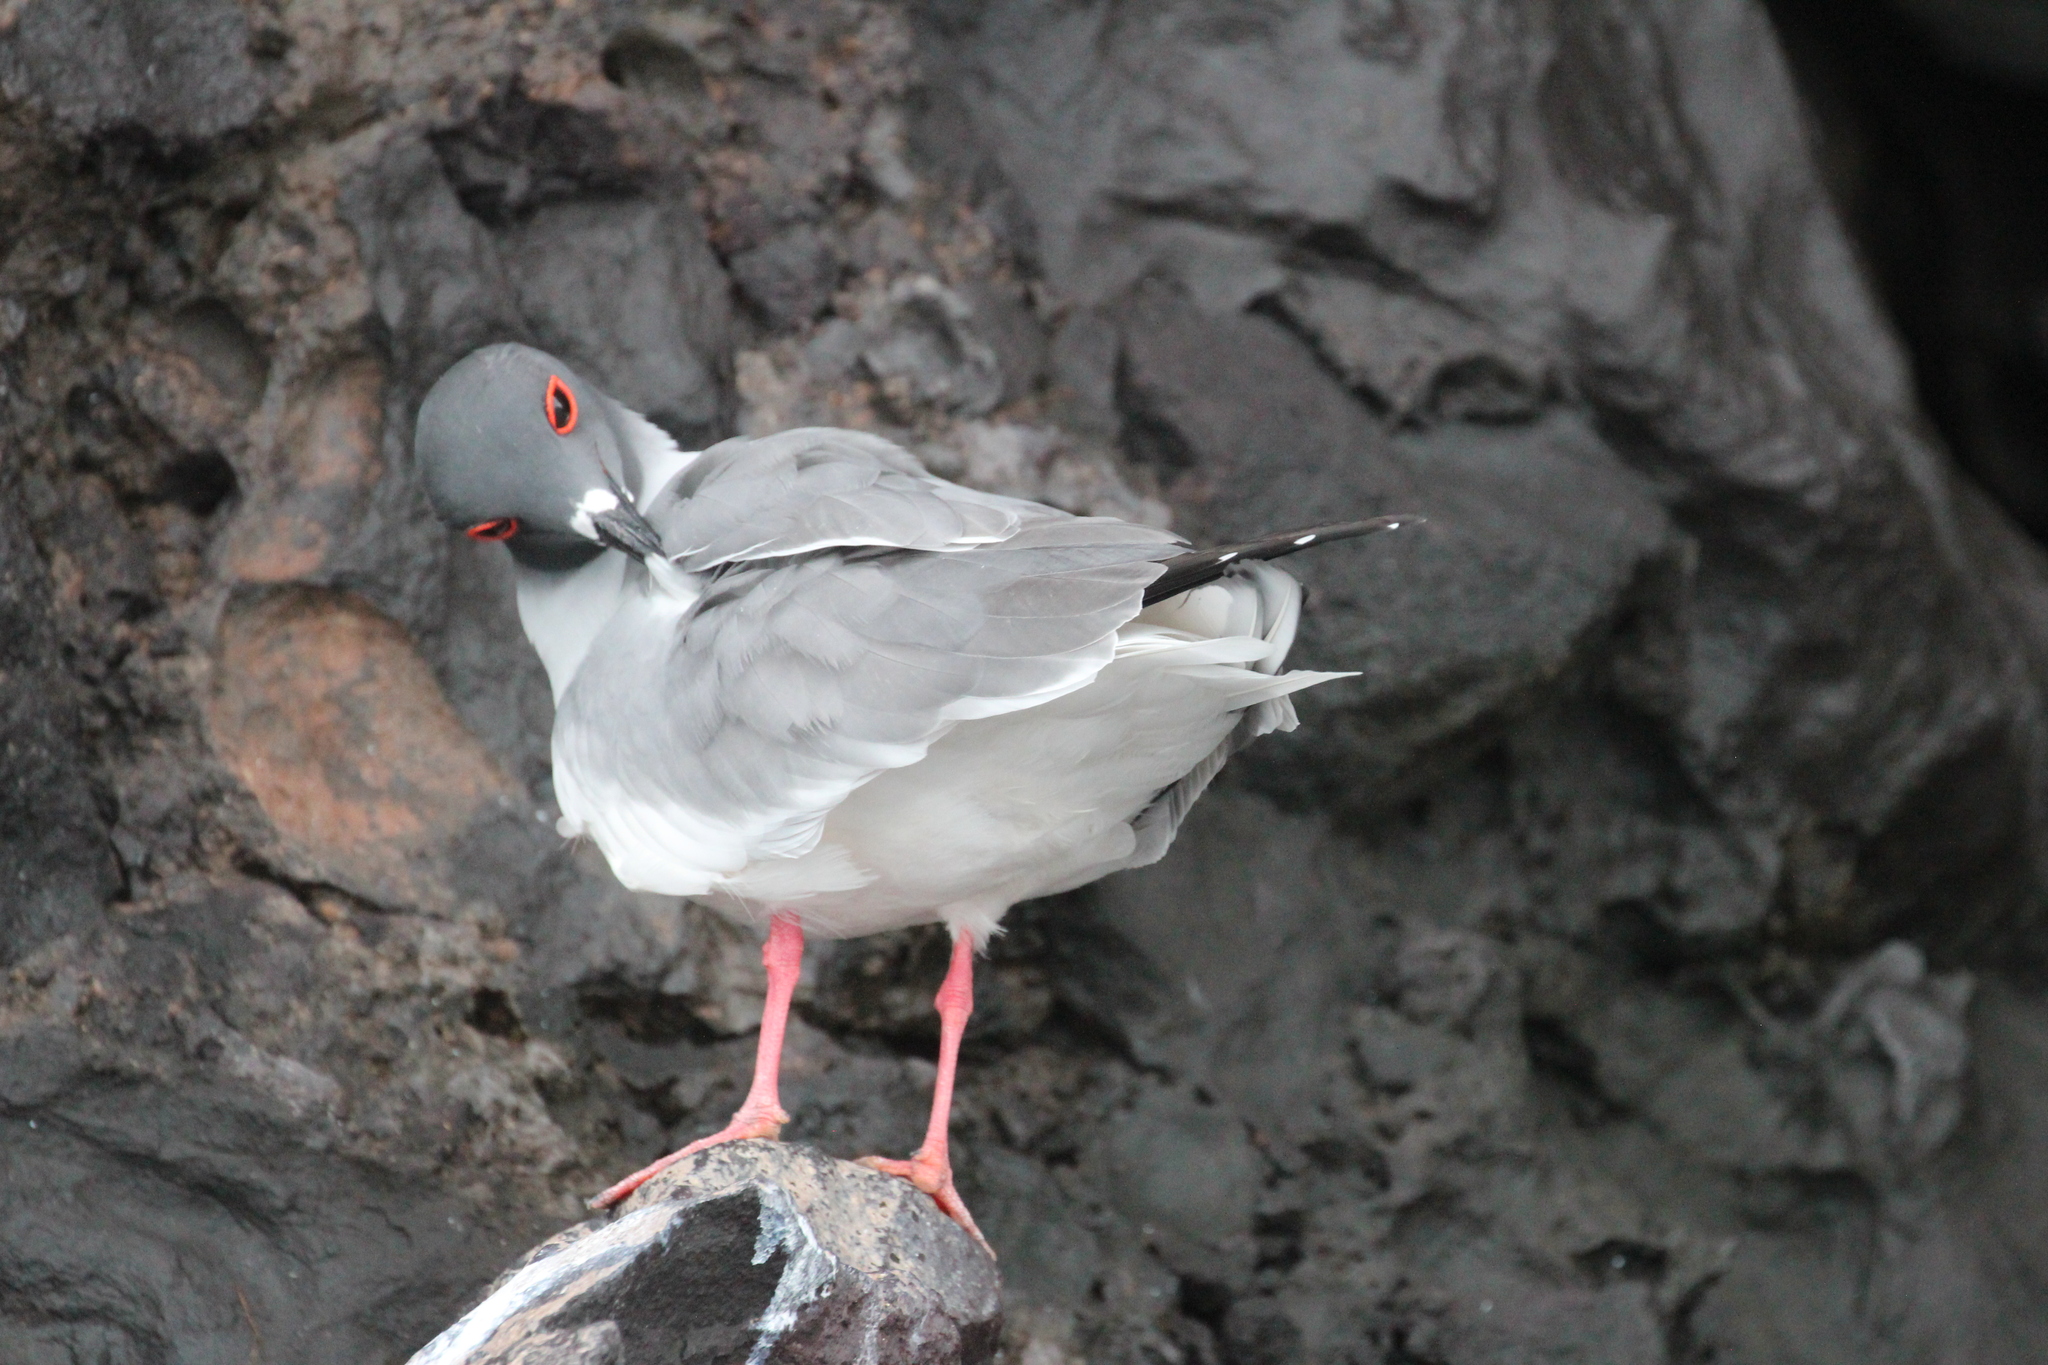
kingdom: Animalia
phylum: Chordata
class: Aves
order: Charadriiformes
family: Laridae
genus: Creagrus
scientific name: Creagrus furcatus
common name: Swallow-tailed gull
